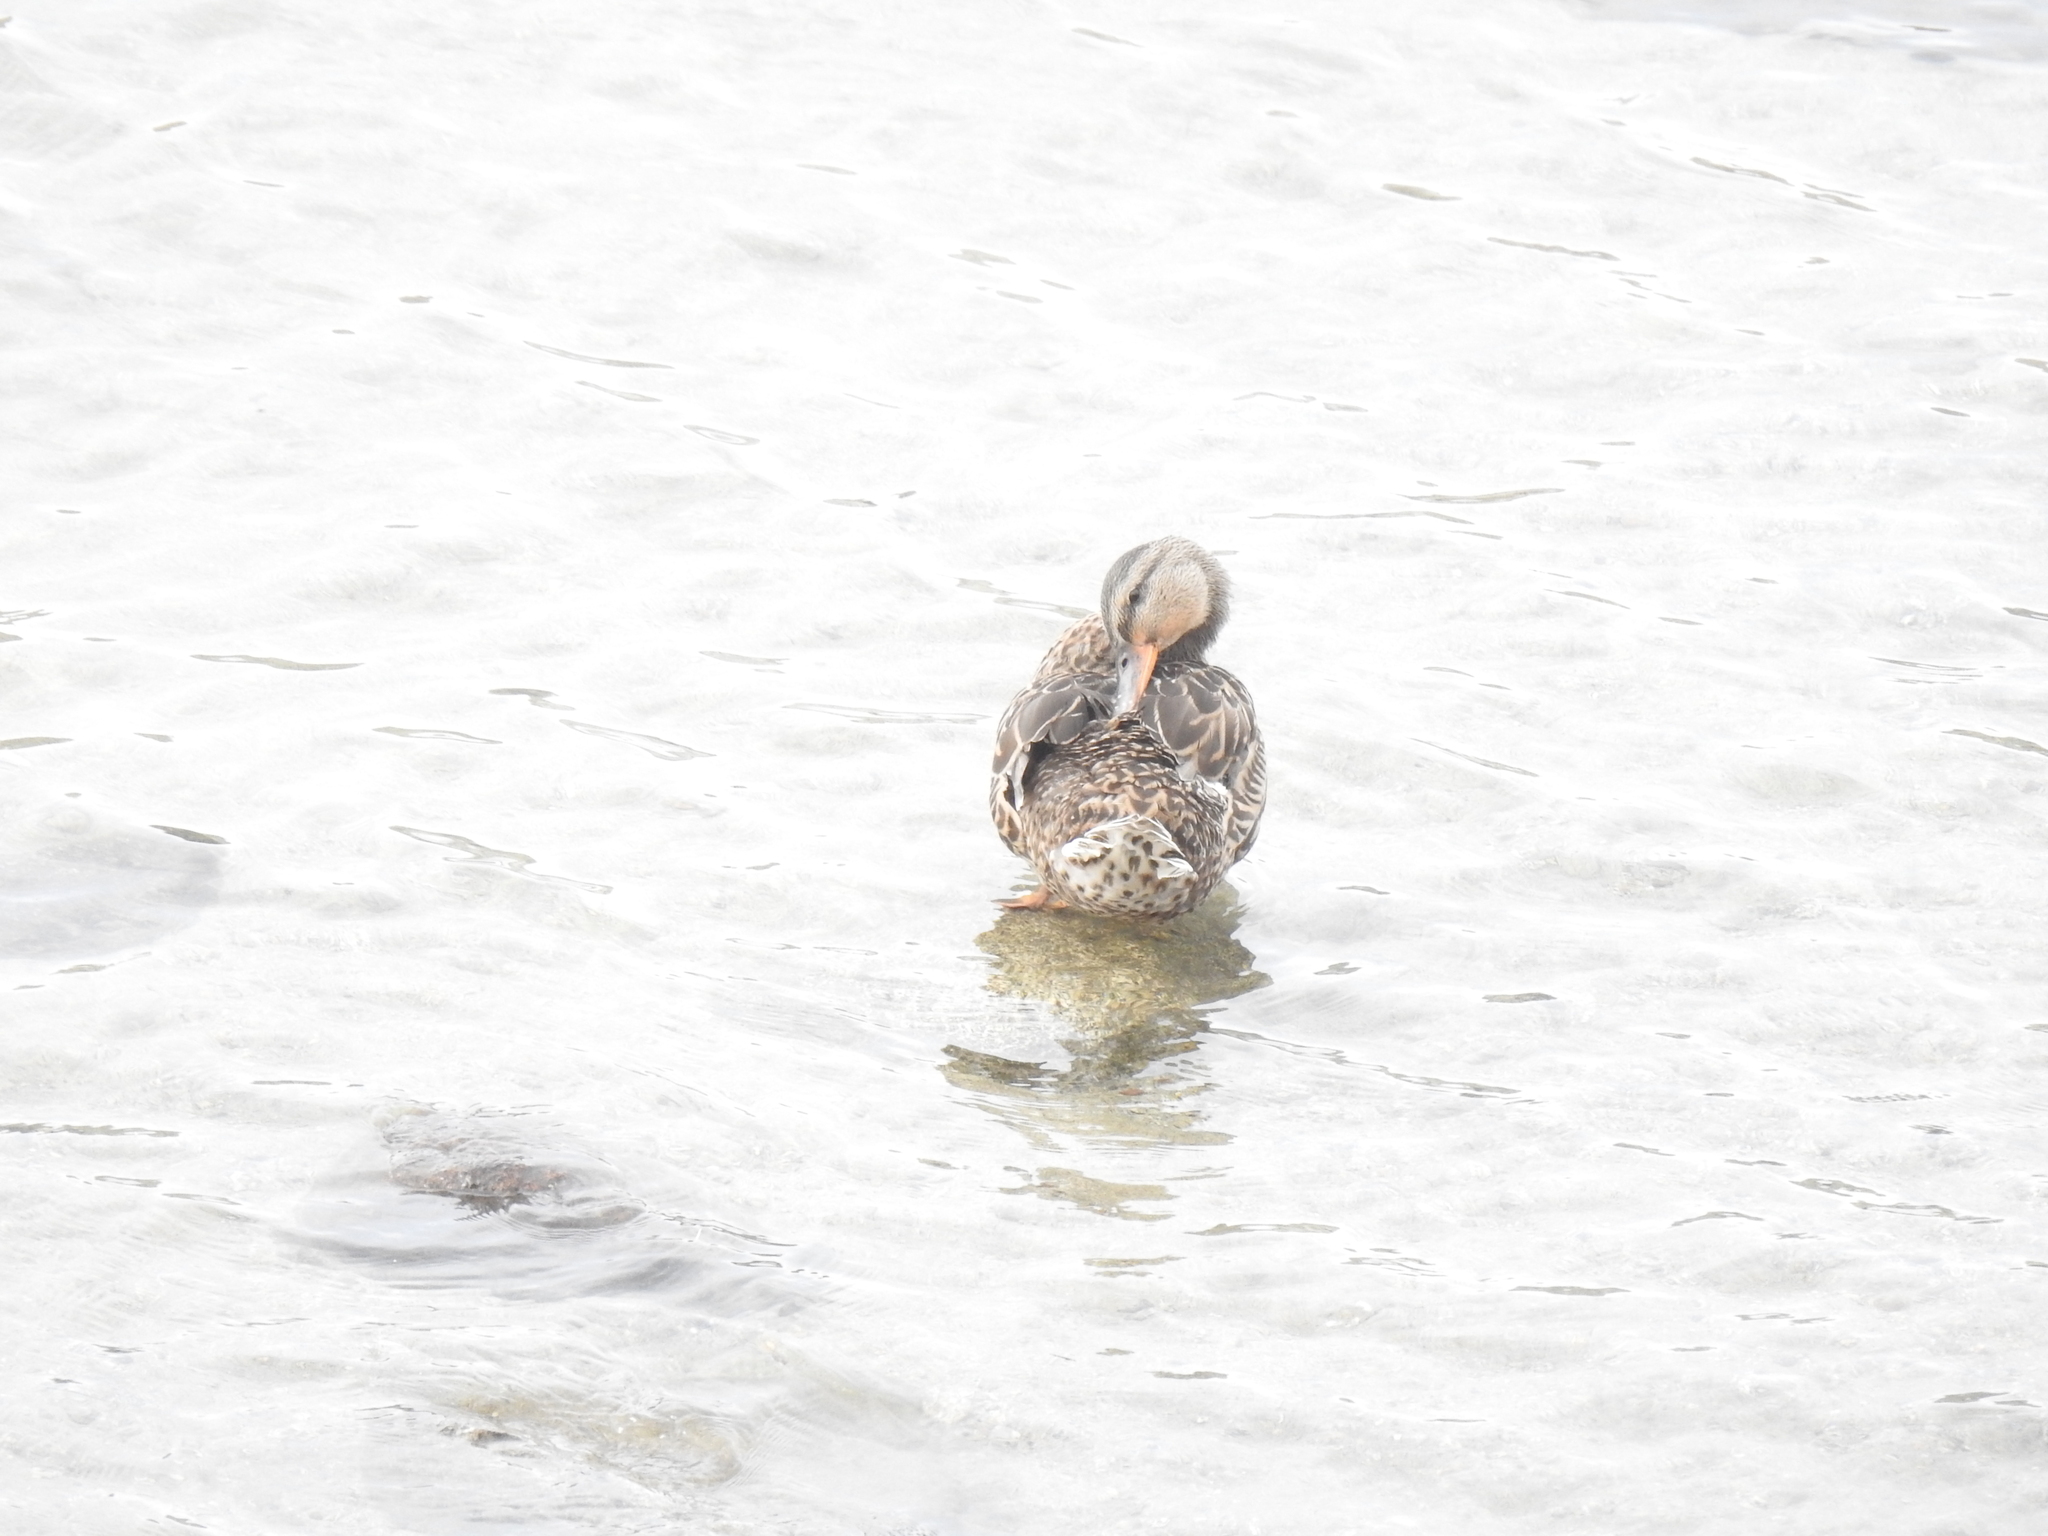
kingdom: Animalia
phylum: Chordata
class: Aves
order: Anseriformes
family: Anatidae
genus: Anas
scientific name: Anas platyrhynchos
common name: Mallard
